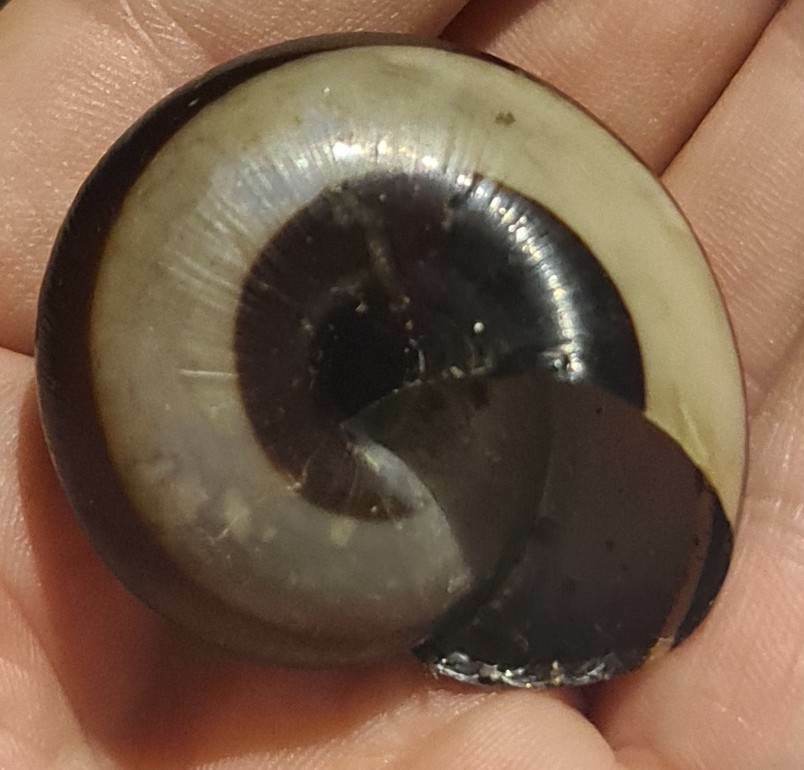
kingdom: Animalia
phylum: Mollusca
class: Gastropoda
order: Stylommatophora
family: Dyakiidae
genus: Bertia
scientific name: Bertia cambojiensis
